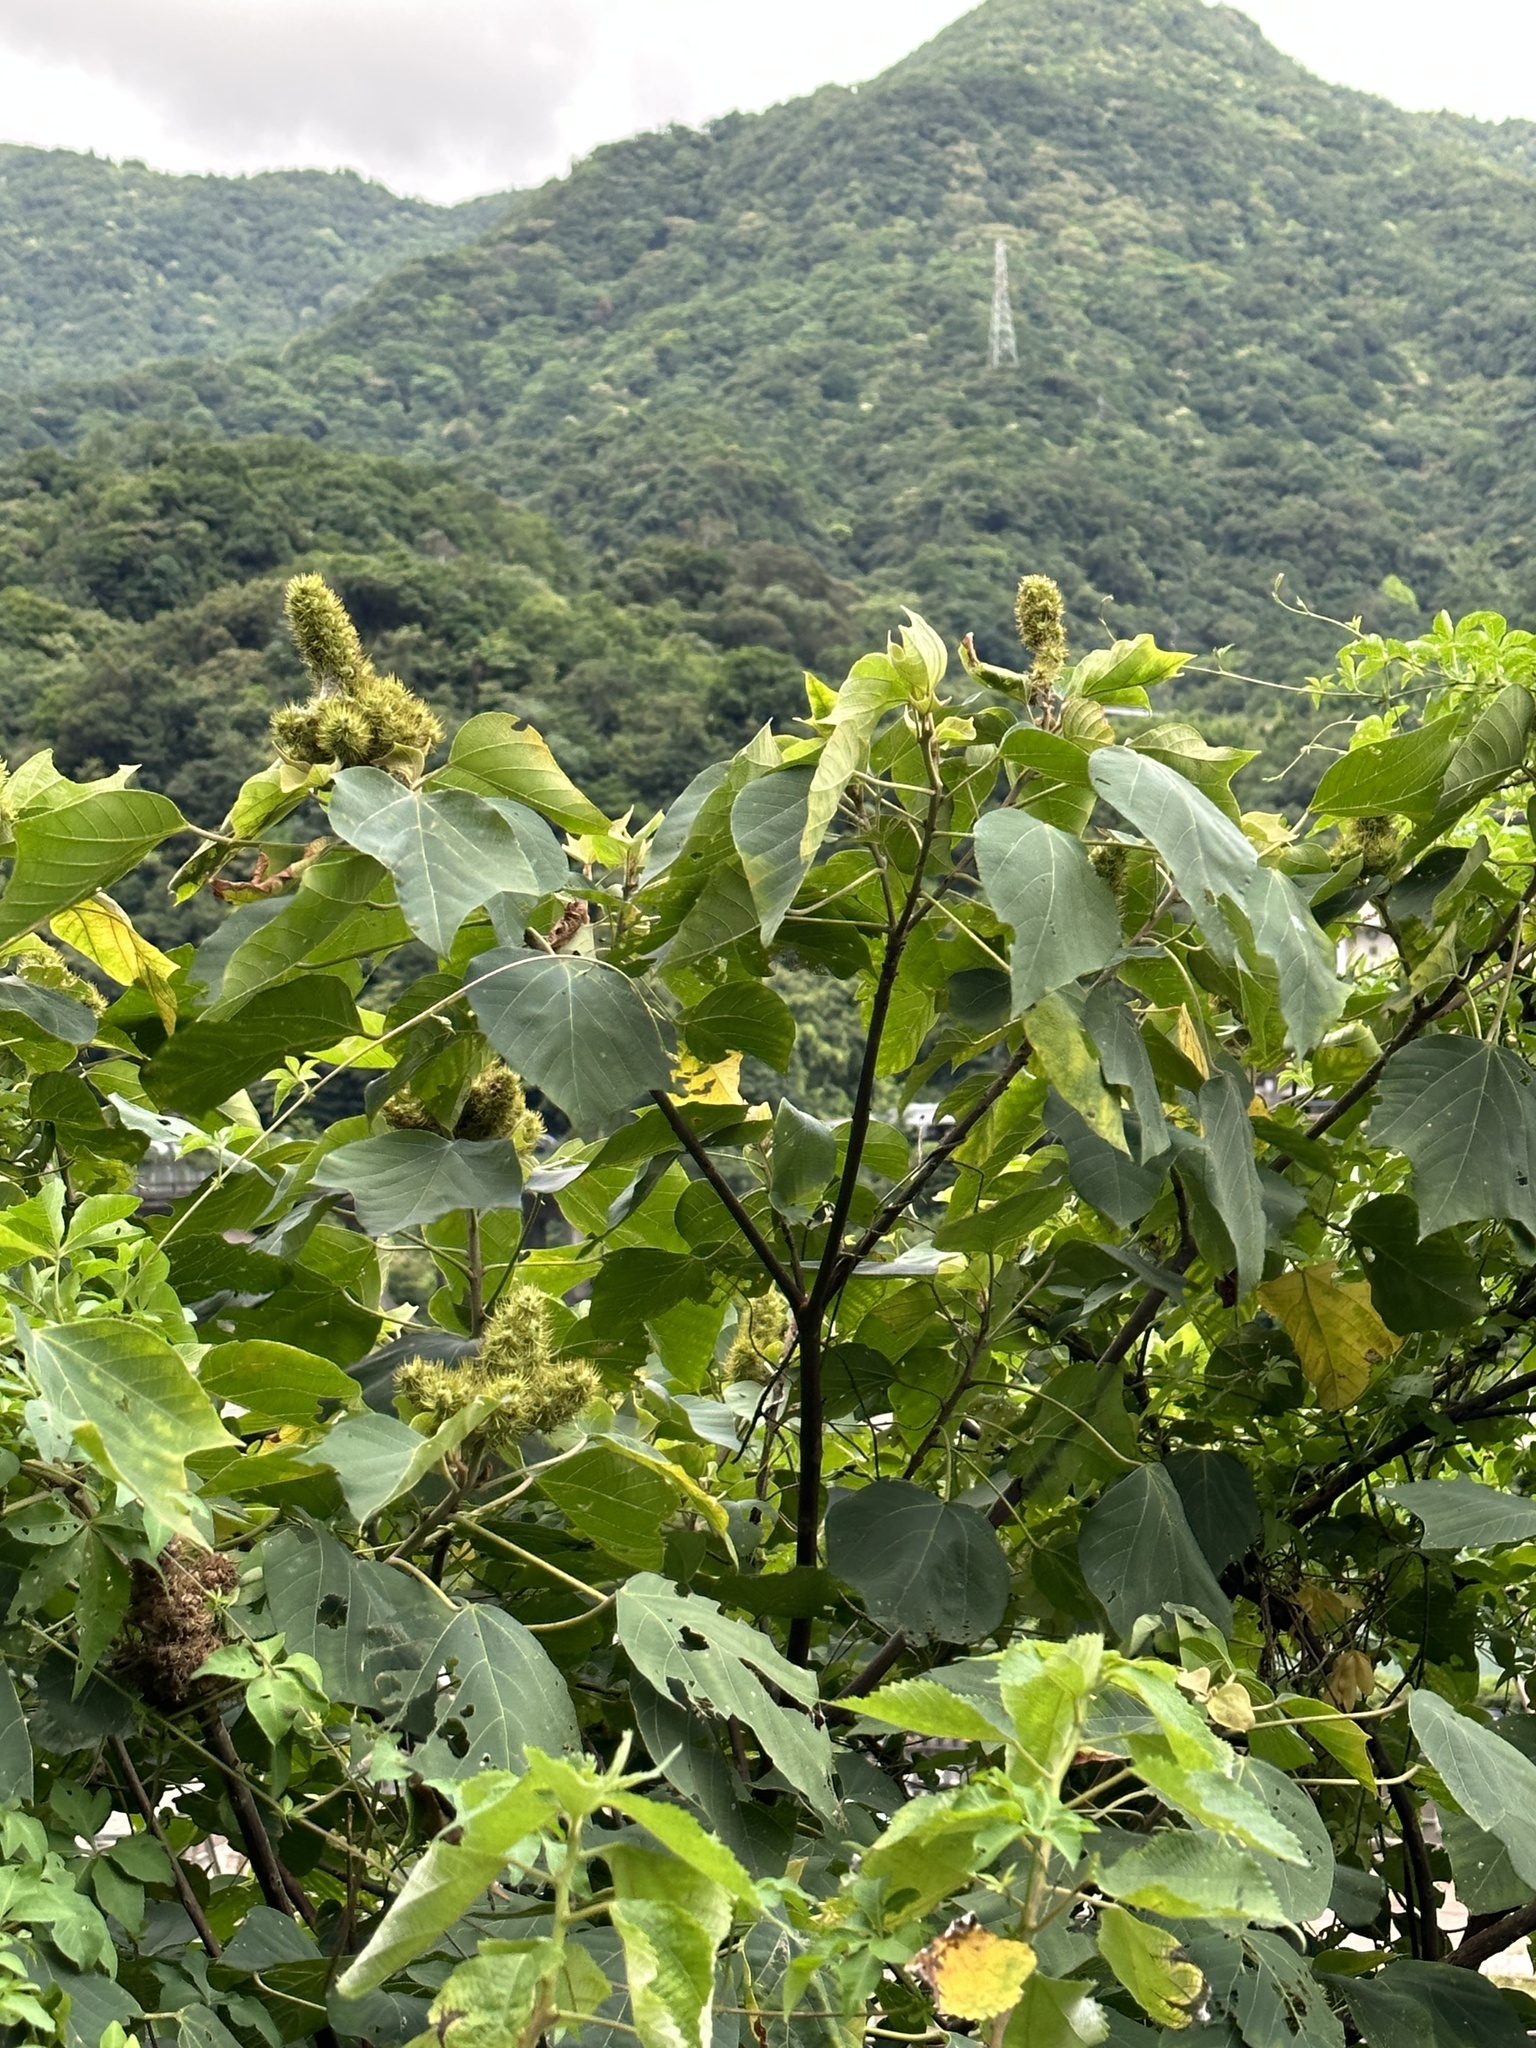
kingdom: Plantae
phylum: Tracheophyta
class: Magnoliopsida
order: Malpighiales
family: Euphorbiaceae
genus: Mallotus
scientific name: Mallotus japonicus
